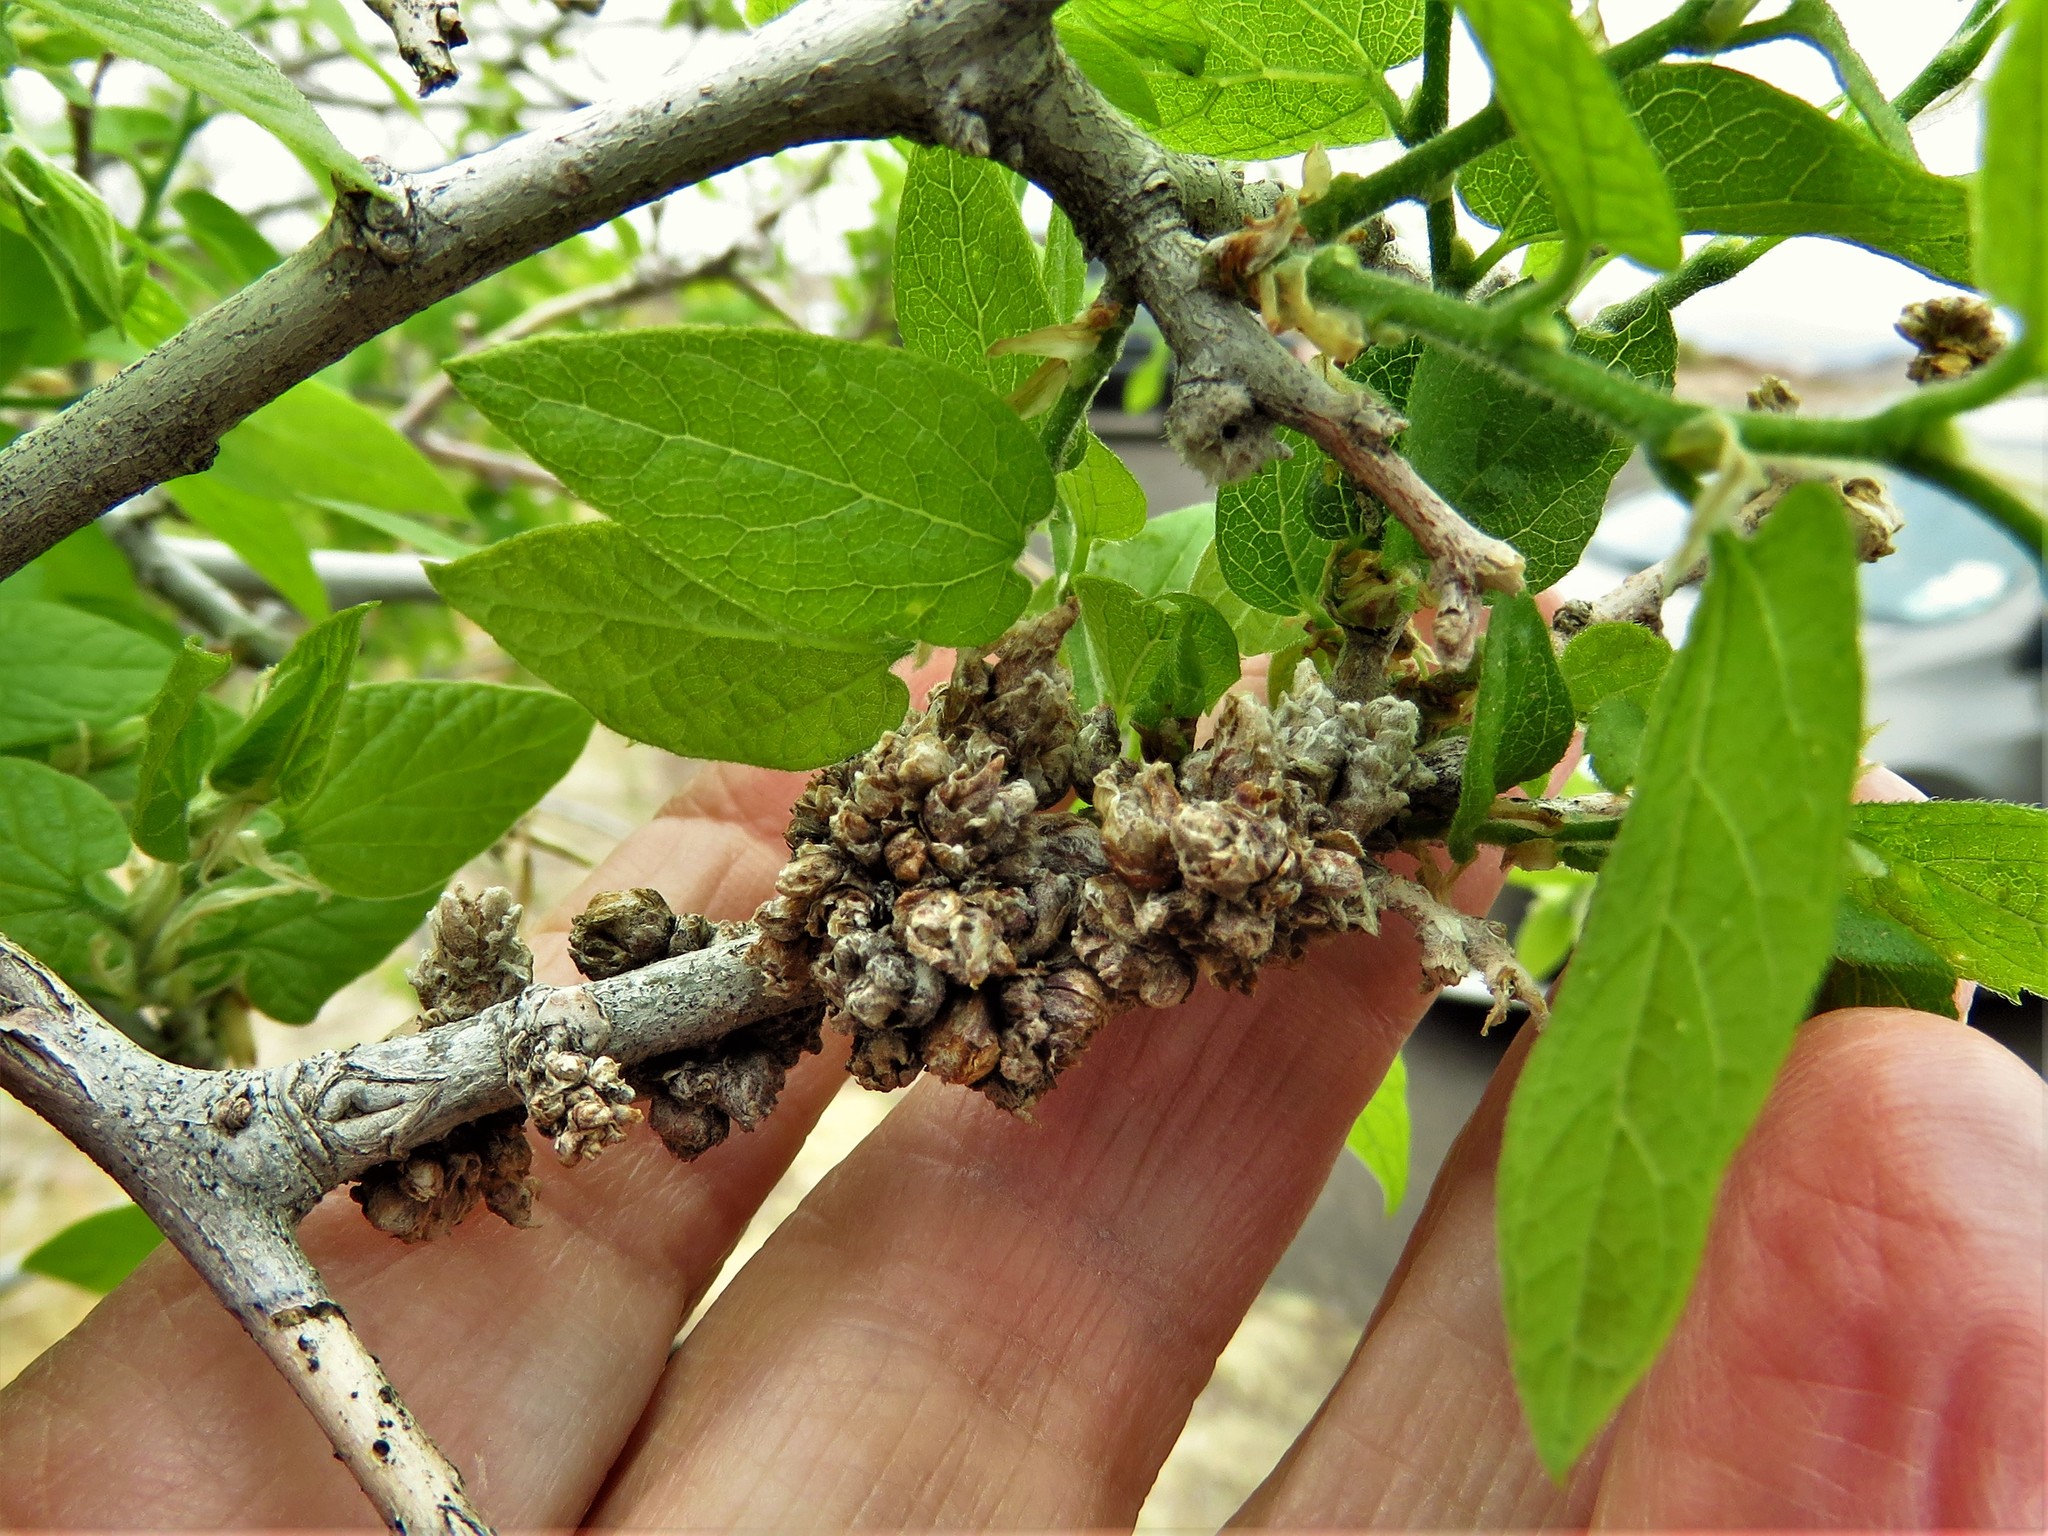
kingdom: Animalia
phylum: Arthropoda
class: Arachnida
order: Trombidiformes
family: Eriophyidae
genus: Aceria
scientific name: Aceria
